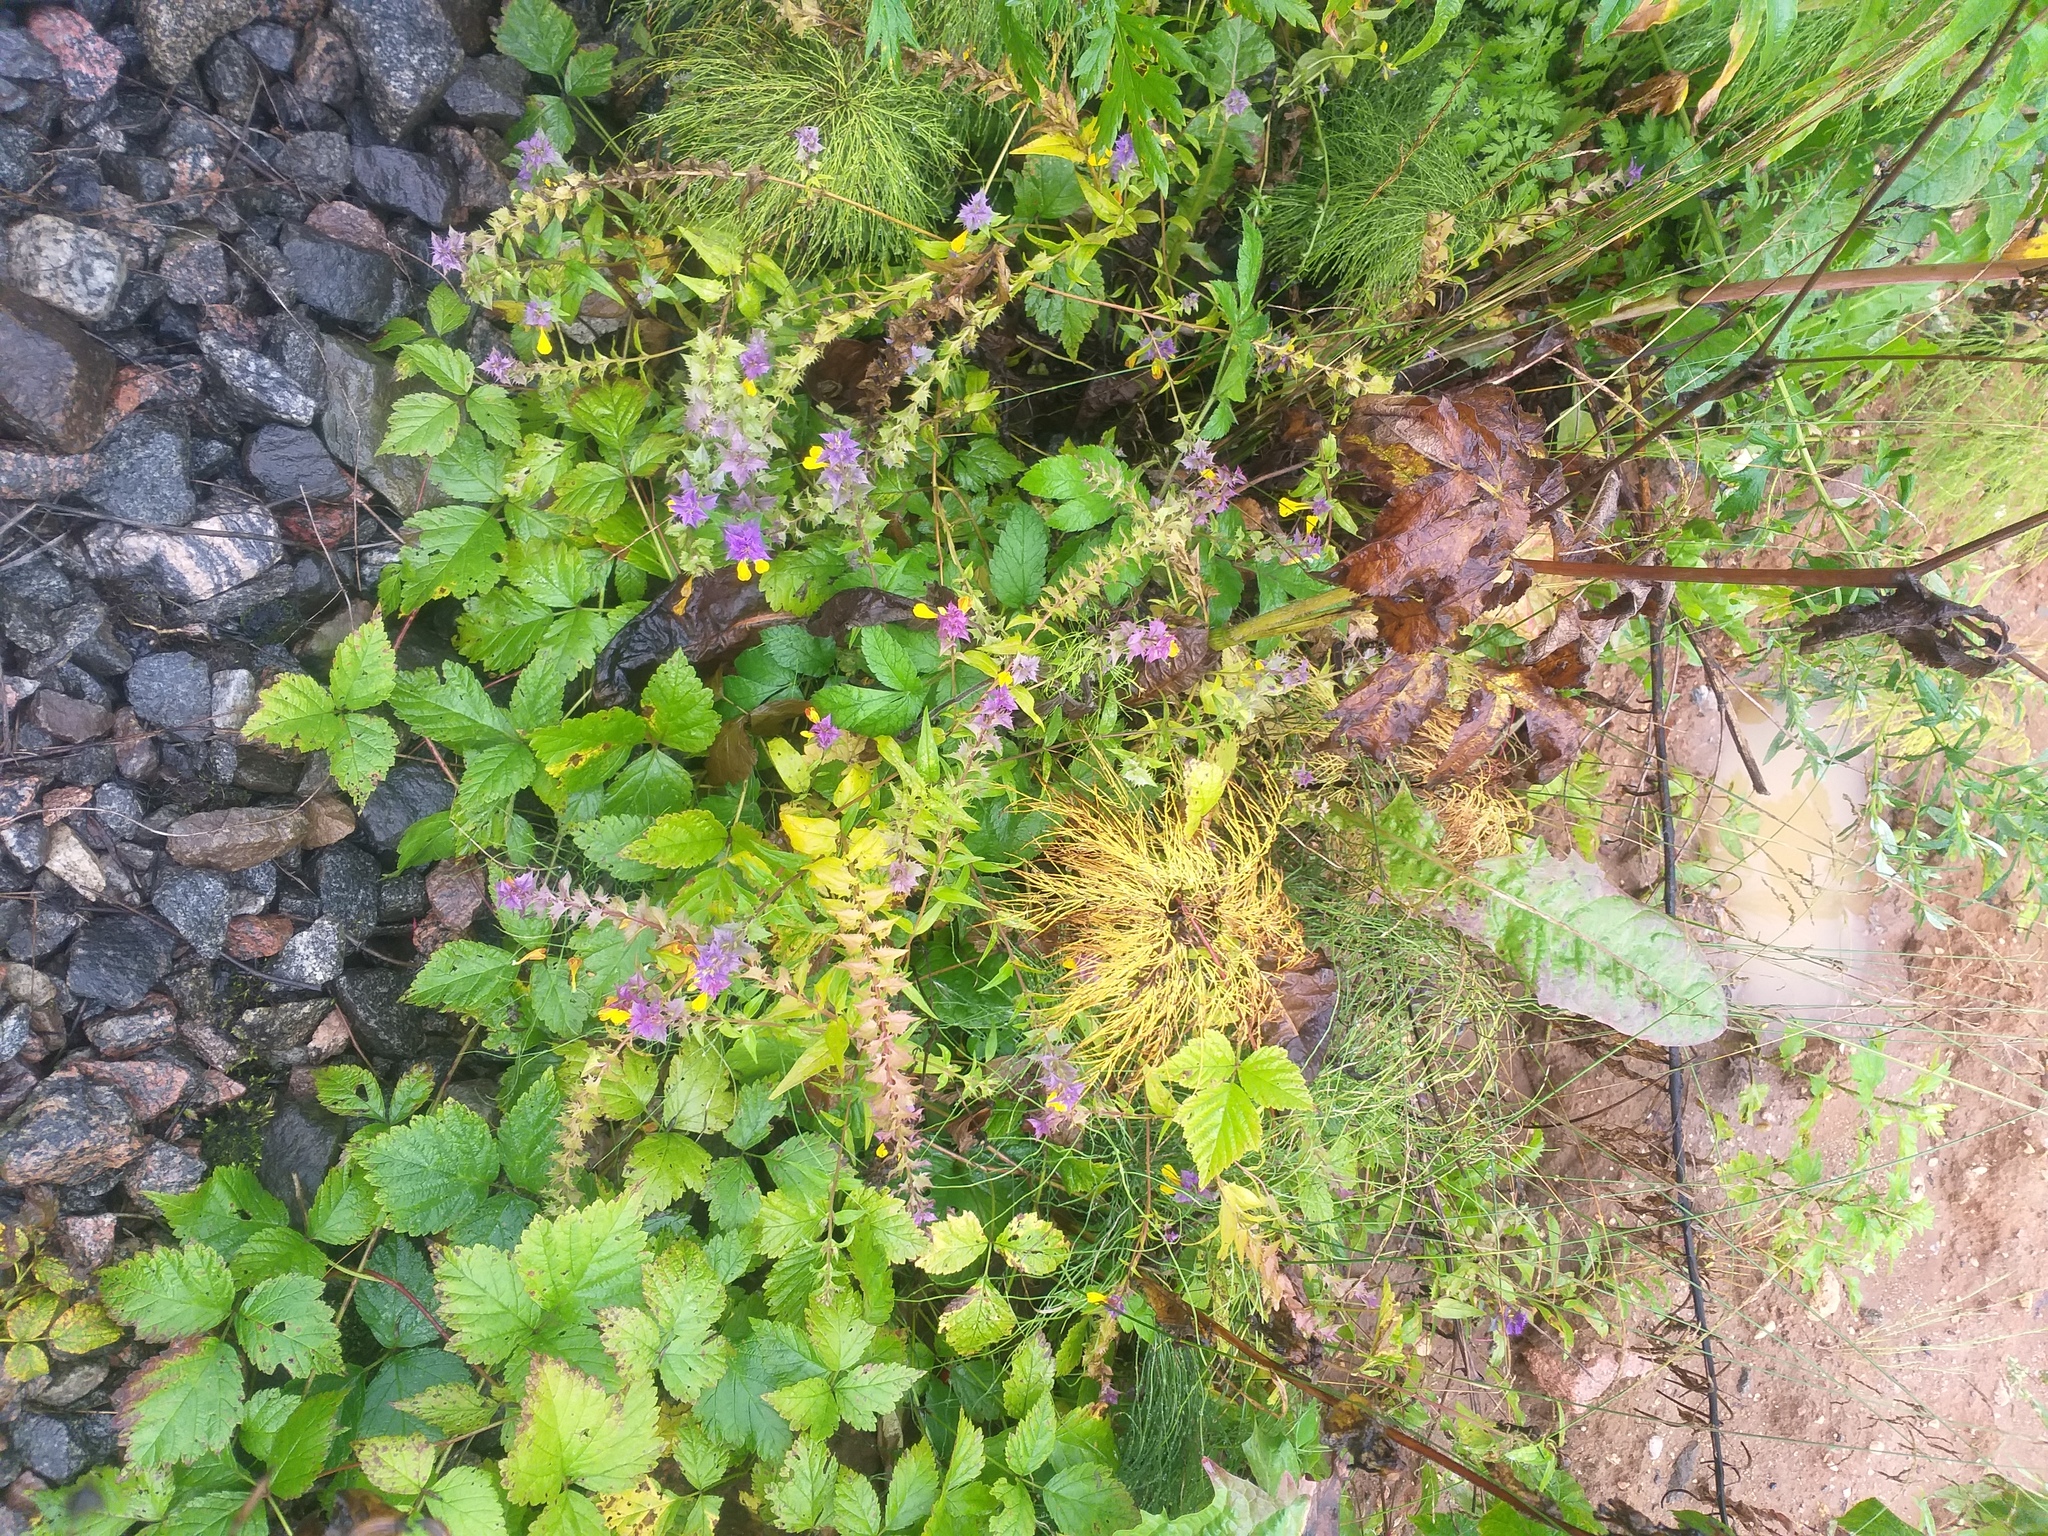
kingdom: Plantae
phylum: Tracheophyta
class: Magnoliopsida
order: Lamiales
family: Orobanchaceae
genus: Melampyrum
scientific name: Melampyrum nemorosum
